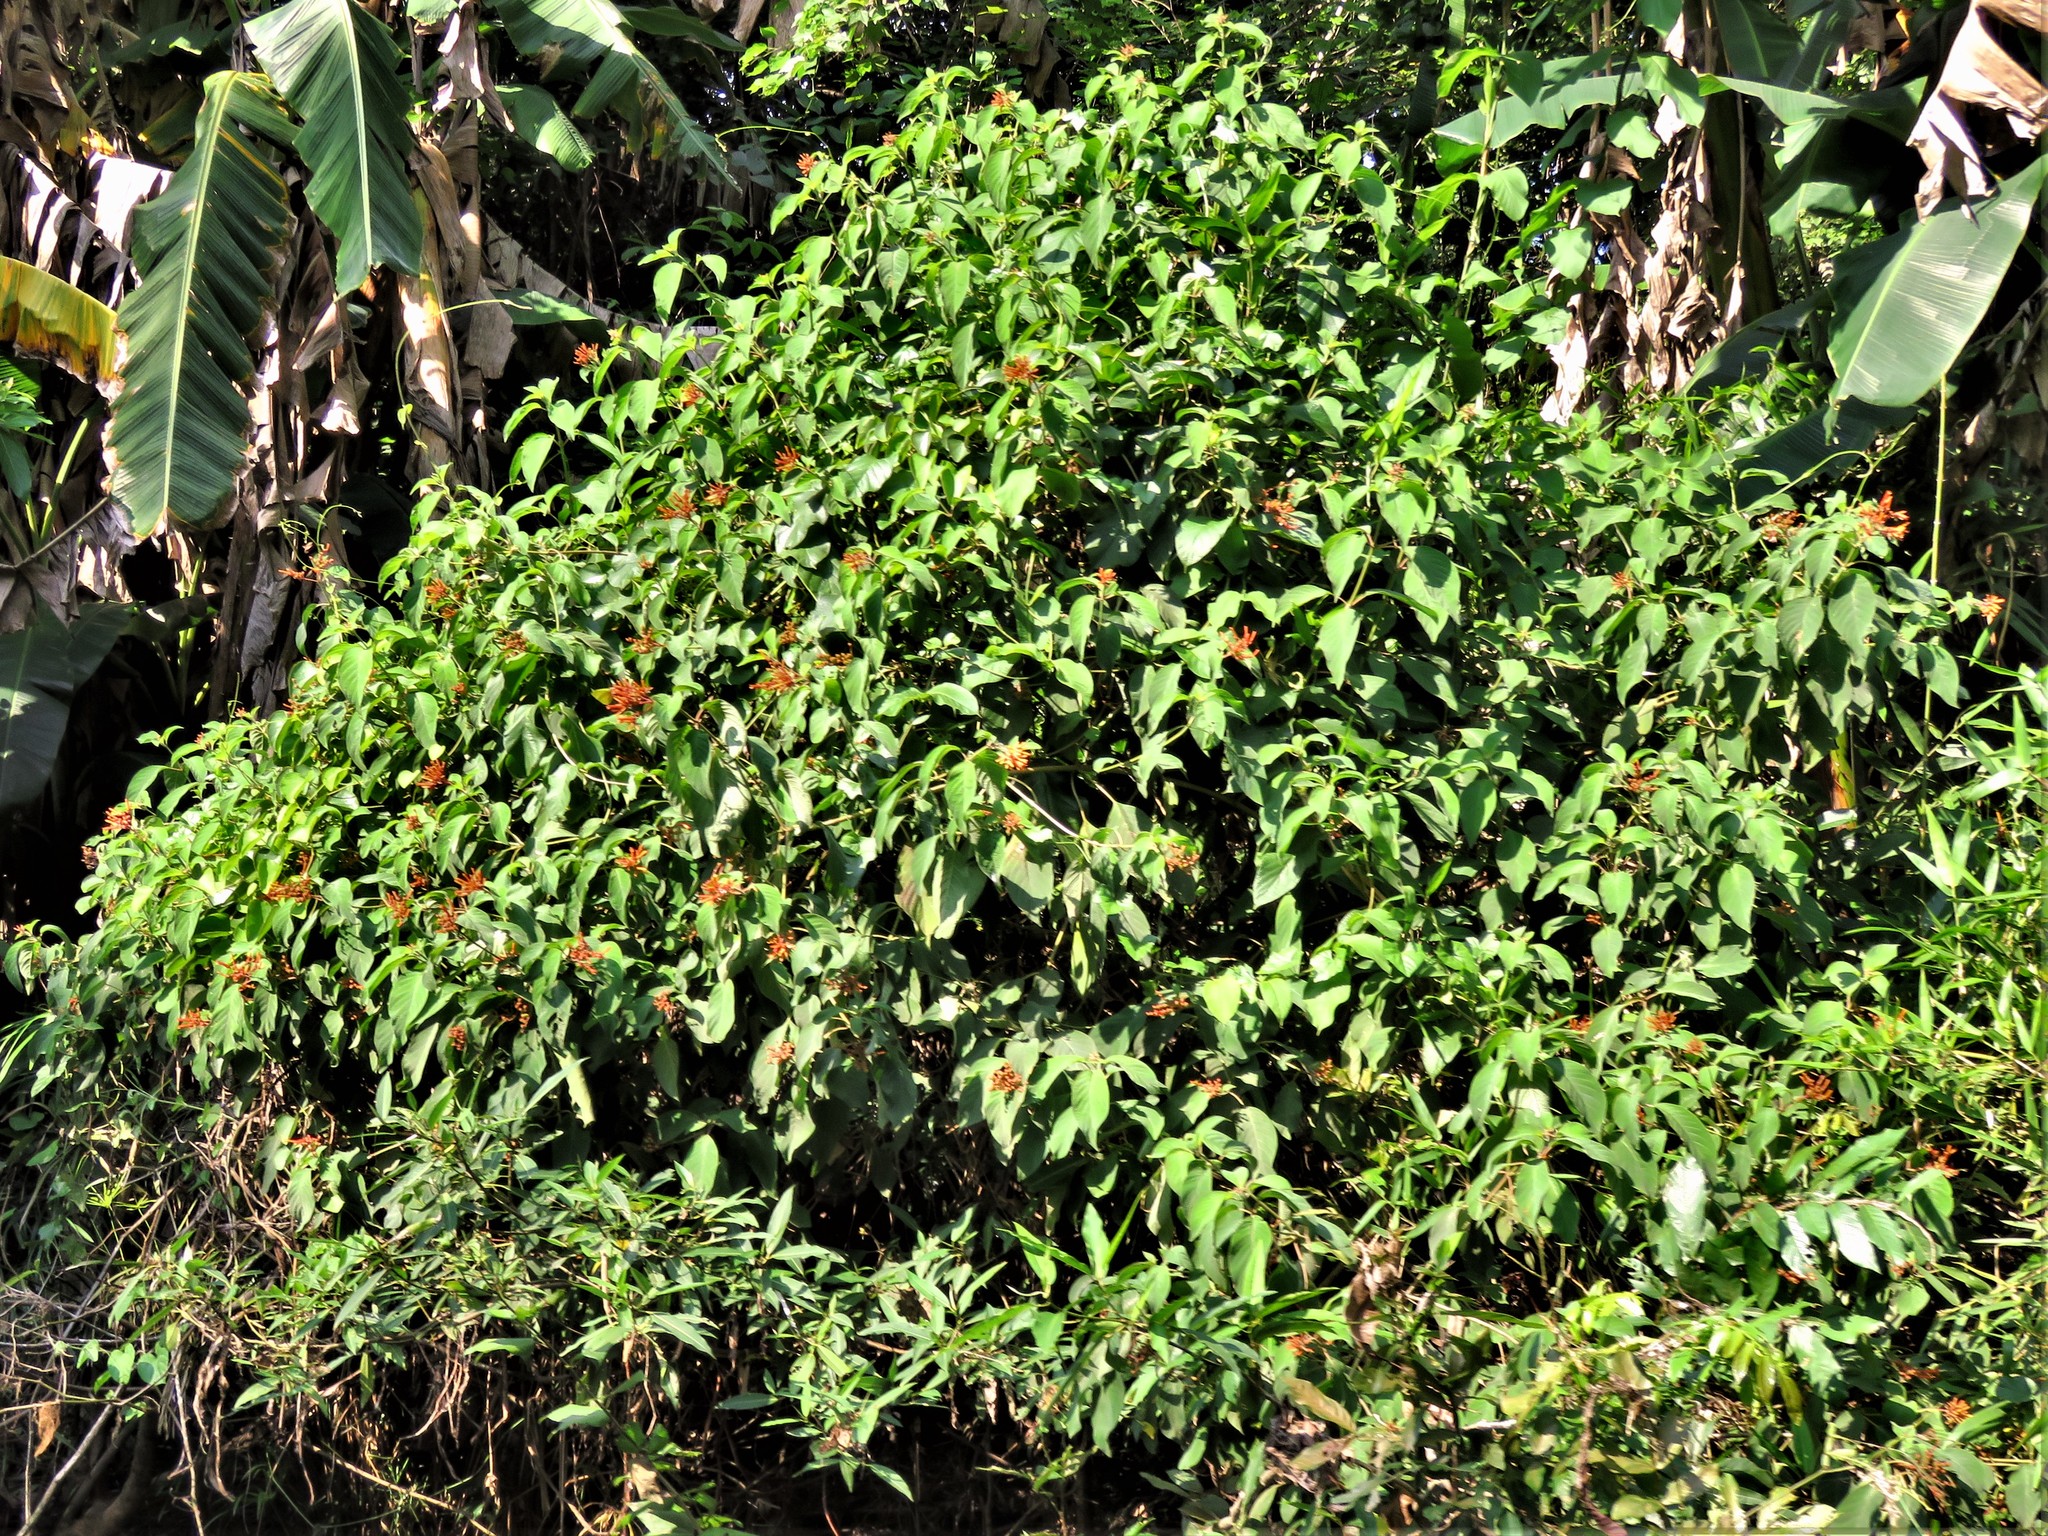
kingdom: Plantae
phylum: Tracheophyta
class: Magnoliopsida
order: Gentianales
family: Rubiaceae
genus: Hamelia
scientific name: Hamelia patens
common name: Redhead
